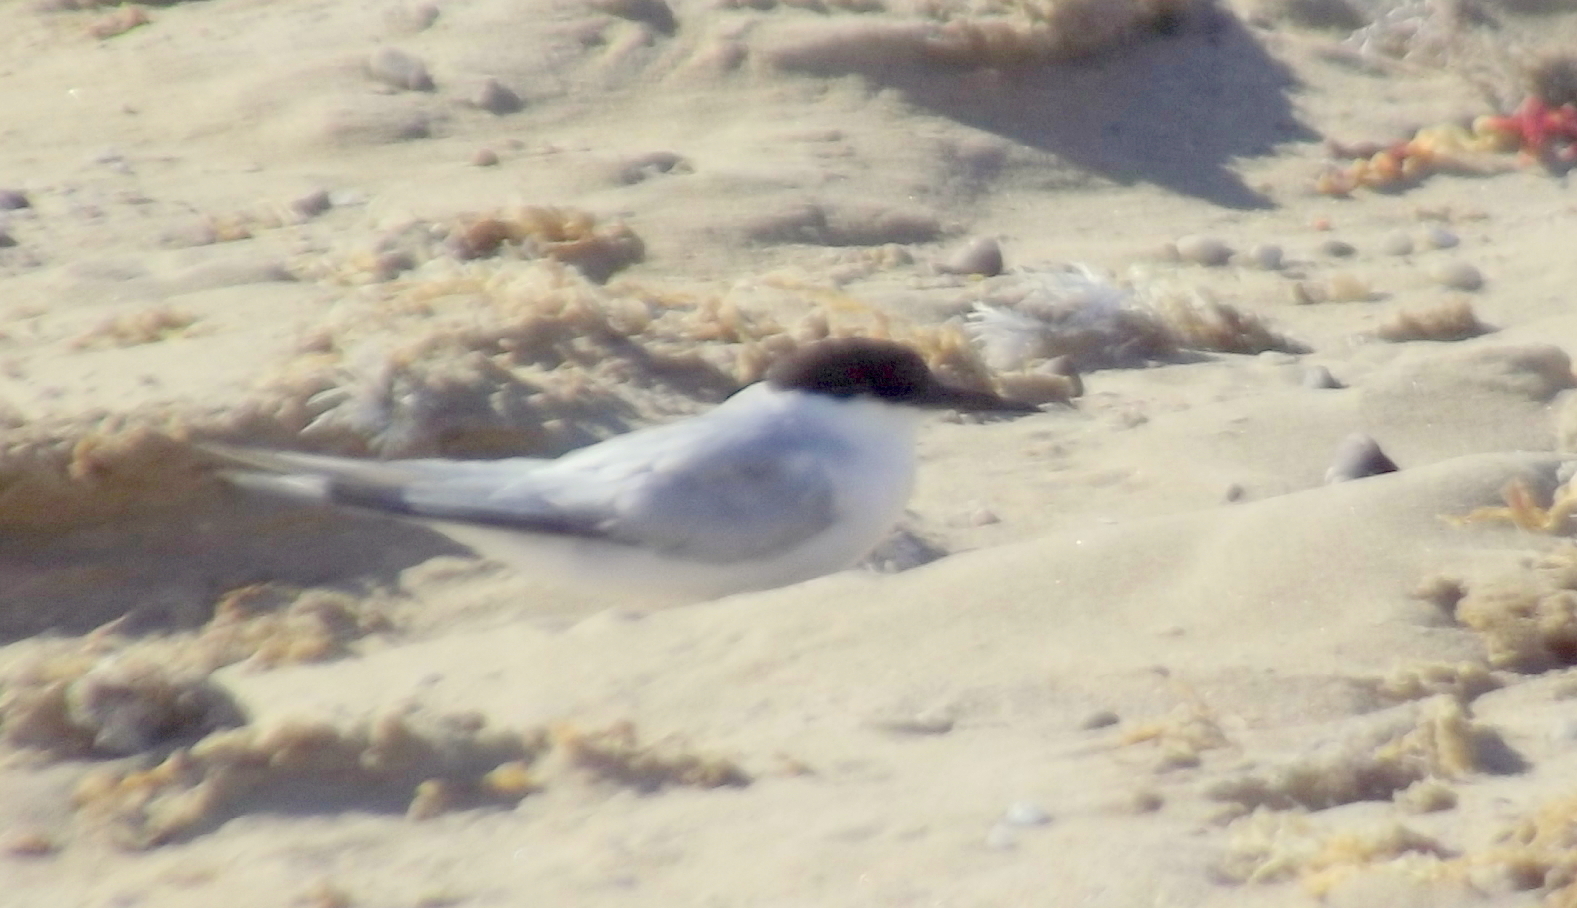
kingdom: Animalia
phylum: Chordata
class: Aves
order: Charadriiformes
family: Laridae
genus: Sternula
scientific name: Sternula balaenarum
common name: Damara tern
